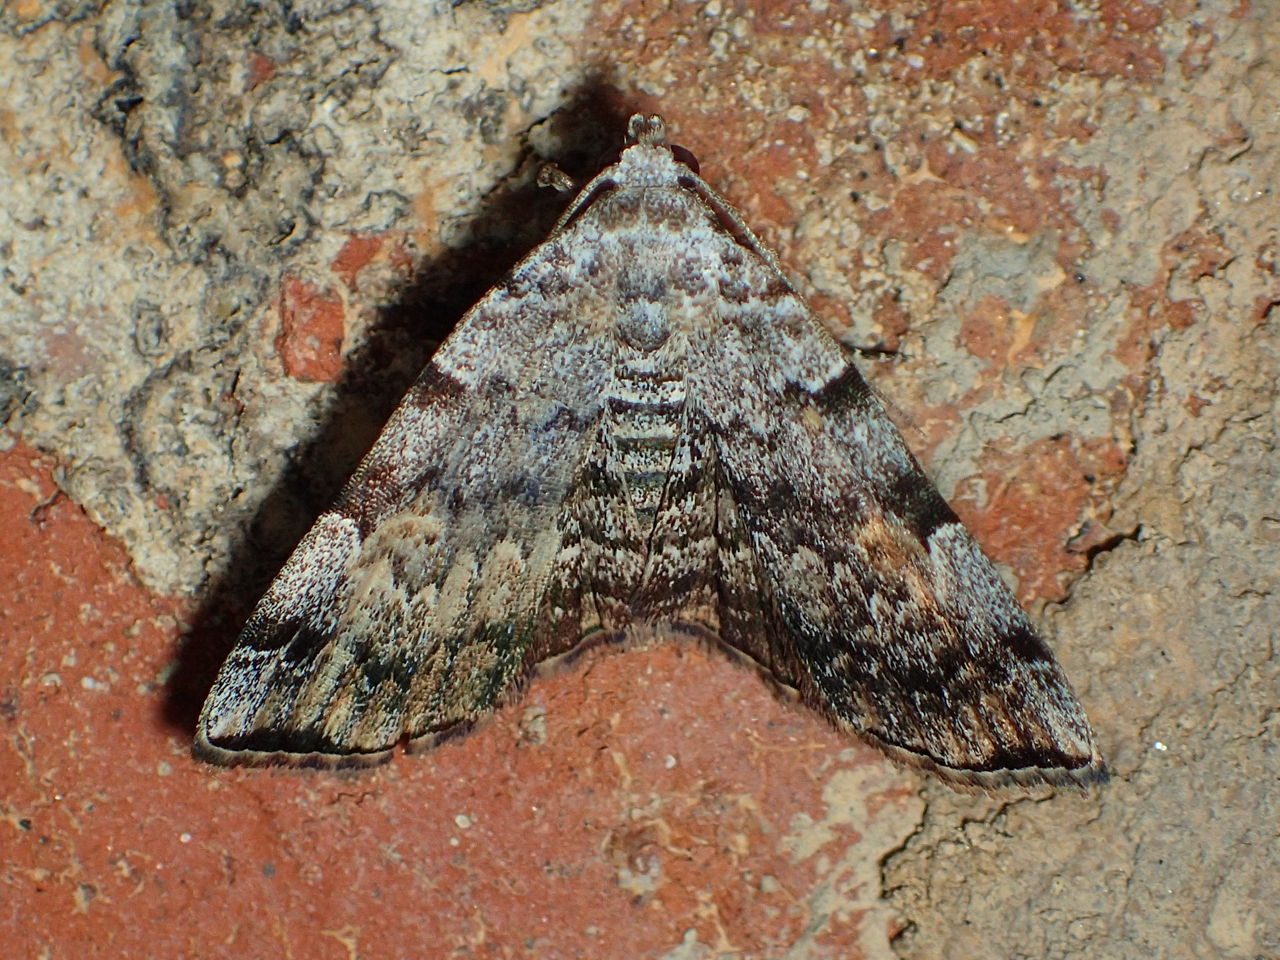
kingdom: Animalia
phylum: Arthropoda
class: Insecta
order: Lepidoptera
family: Erebidae
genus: Idia
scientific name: Idia americalis
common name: American idia moth
